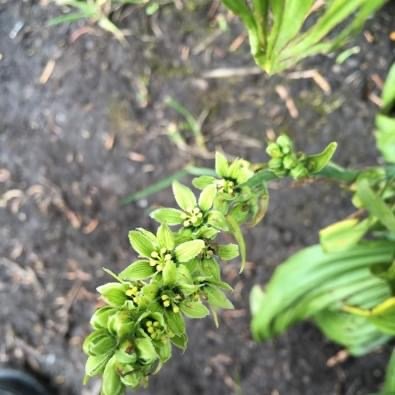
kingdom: Plantae
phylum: Tracheophyta
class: Liliopsida
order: Liliales
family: Melanthiaceae
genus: Veratrum
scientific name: Veratrum viride
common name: American false hellebore
